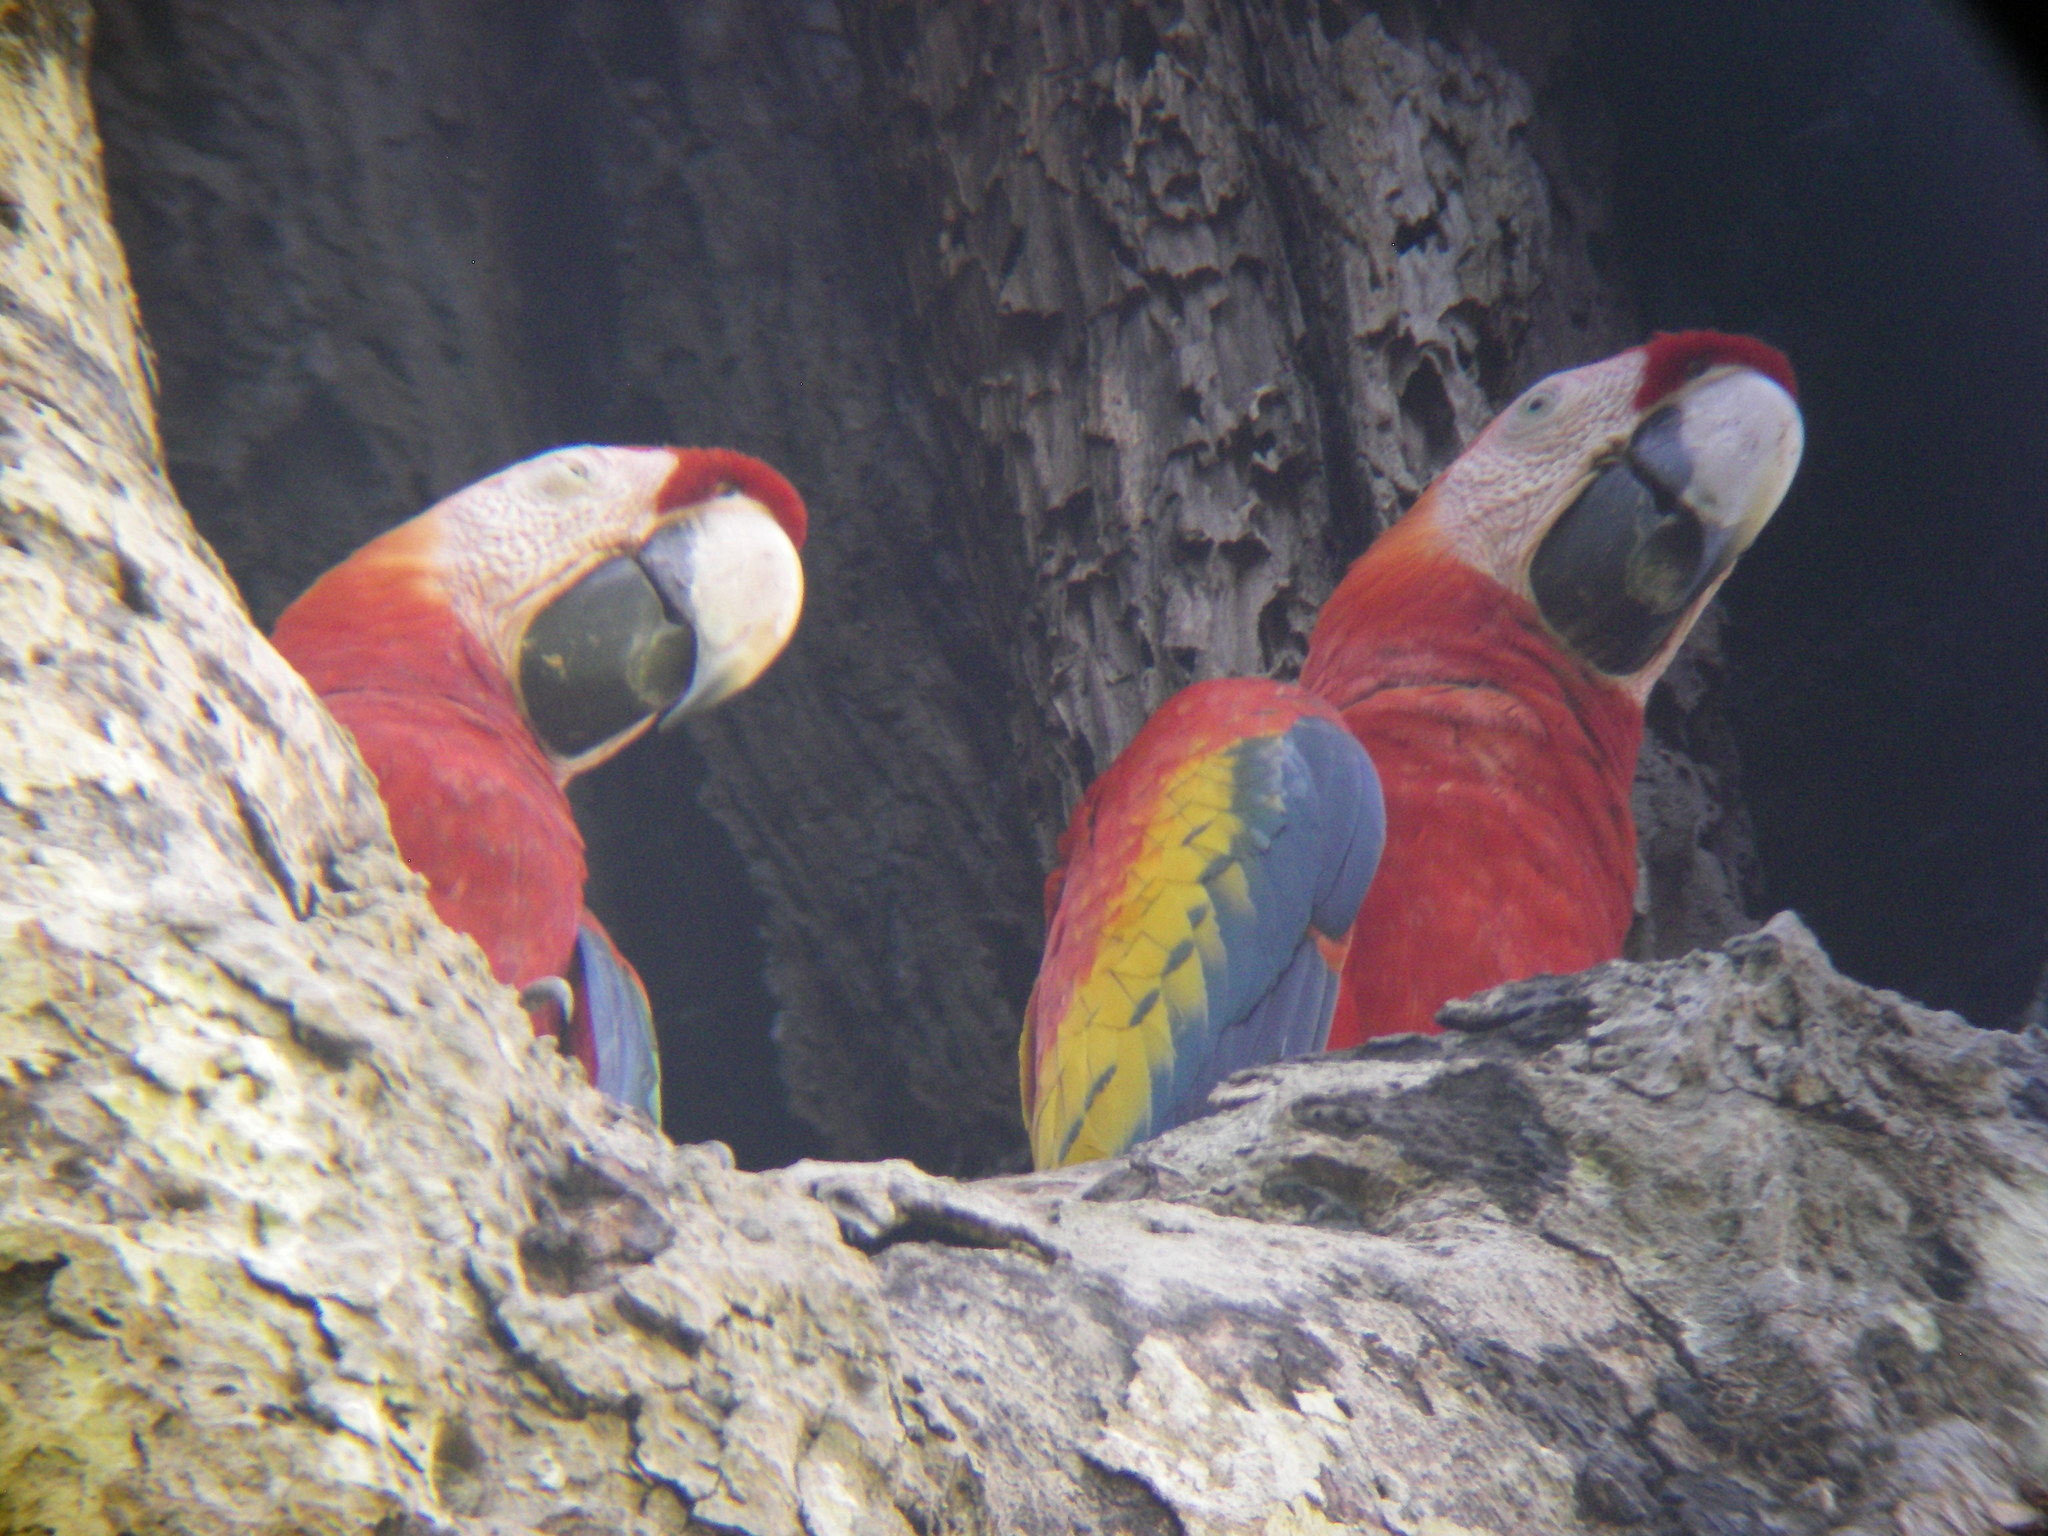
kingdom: Animalia
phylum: Chordata
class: Aves
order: Psittaciformes
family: Psittacidae
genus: Ara
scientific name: Ara macao
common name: Scarlet macaw
